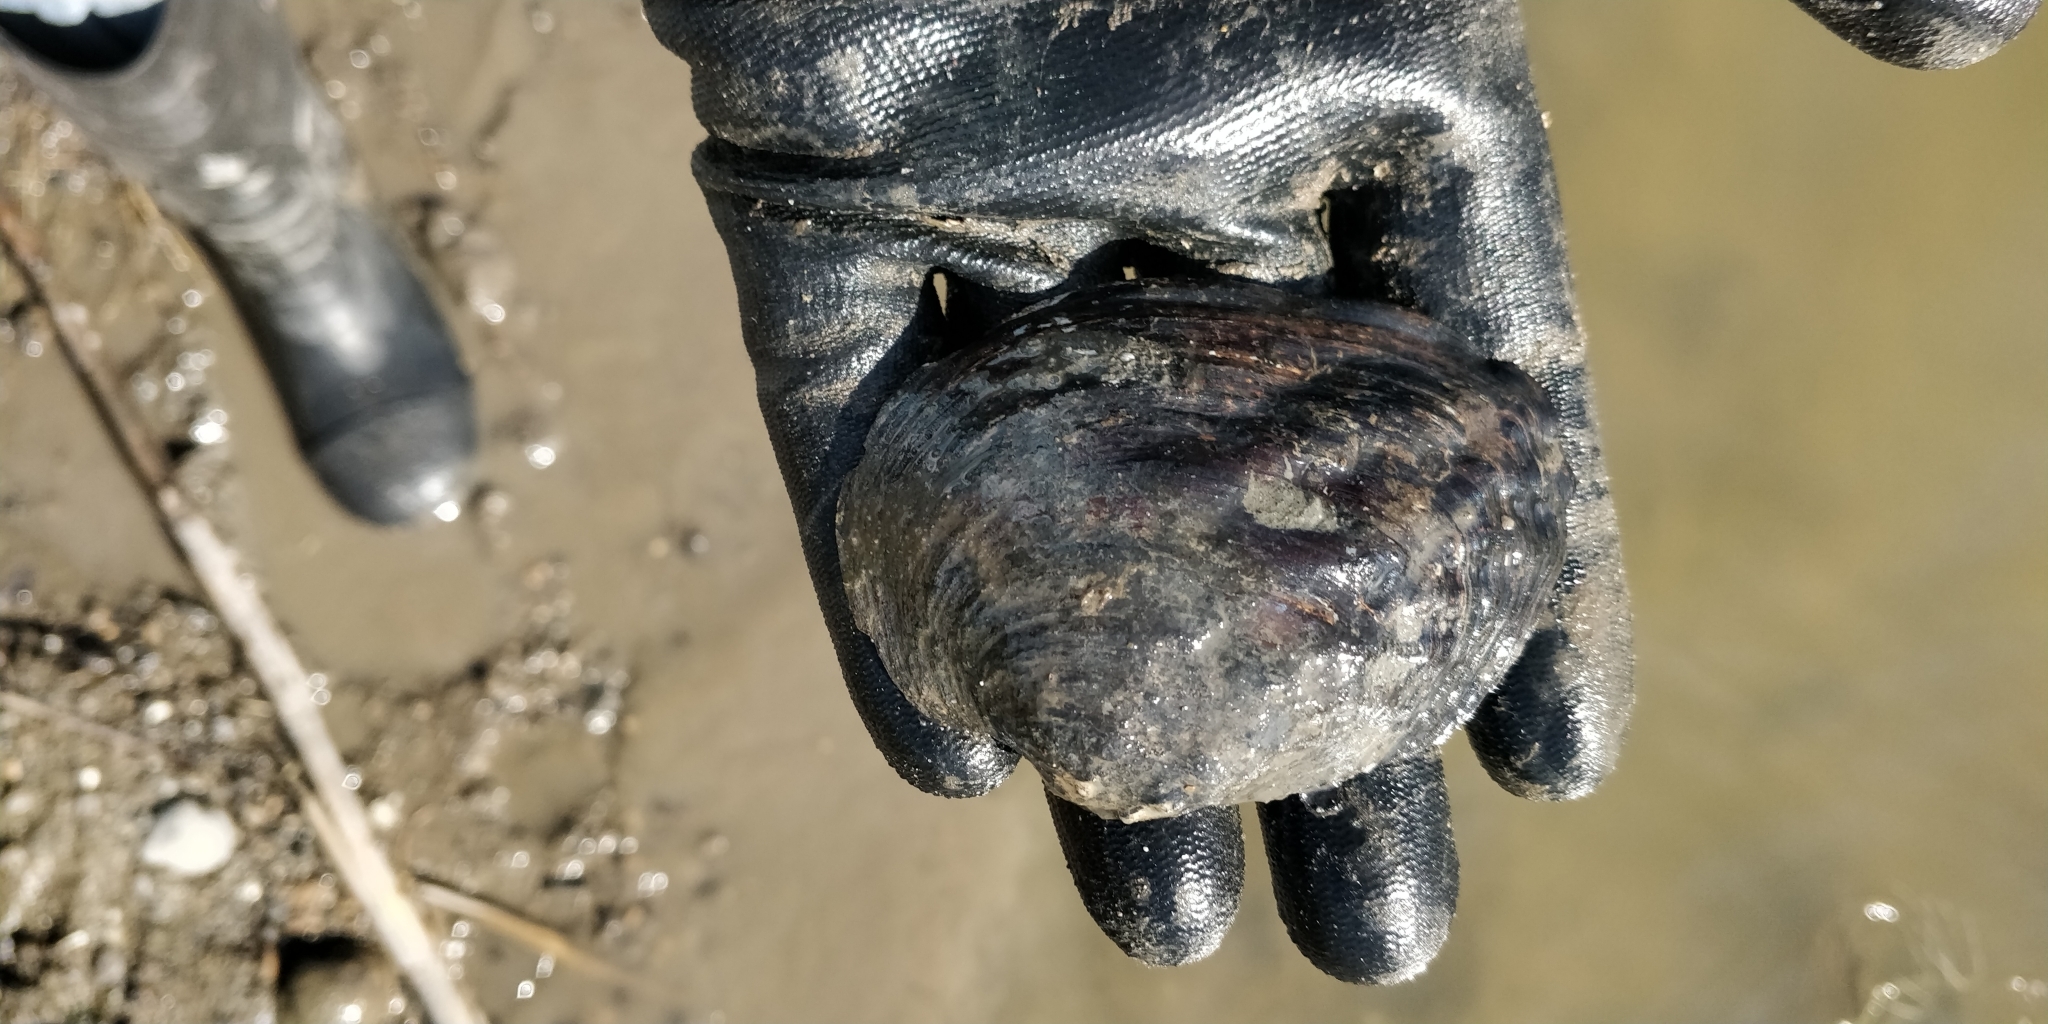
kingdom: Animalia
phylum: Mollusca
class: Bivalvia
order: Unionida
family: Unionidae
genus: Arcidens
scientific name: Arcidens confragosus
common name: Rock pocketbook
